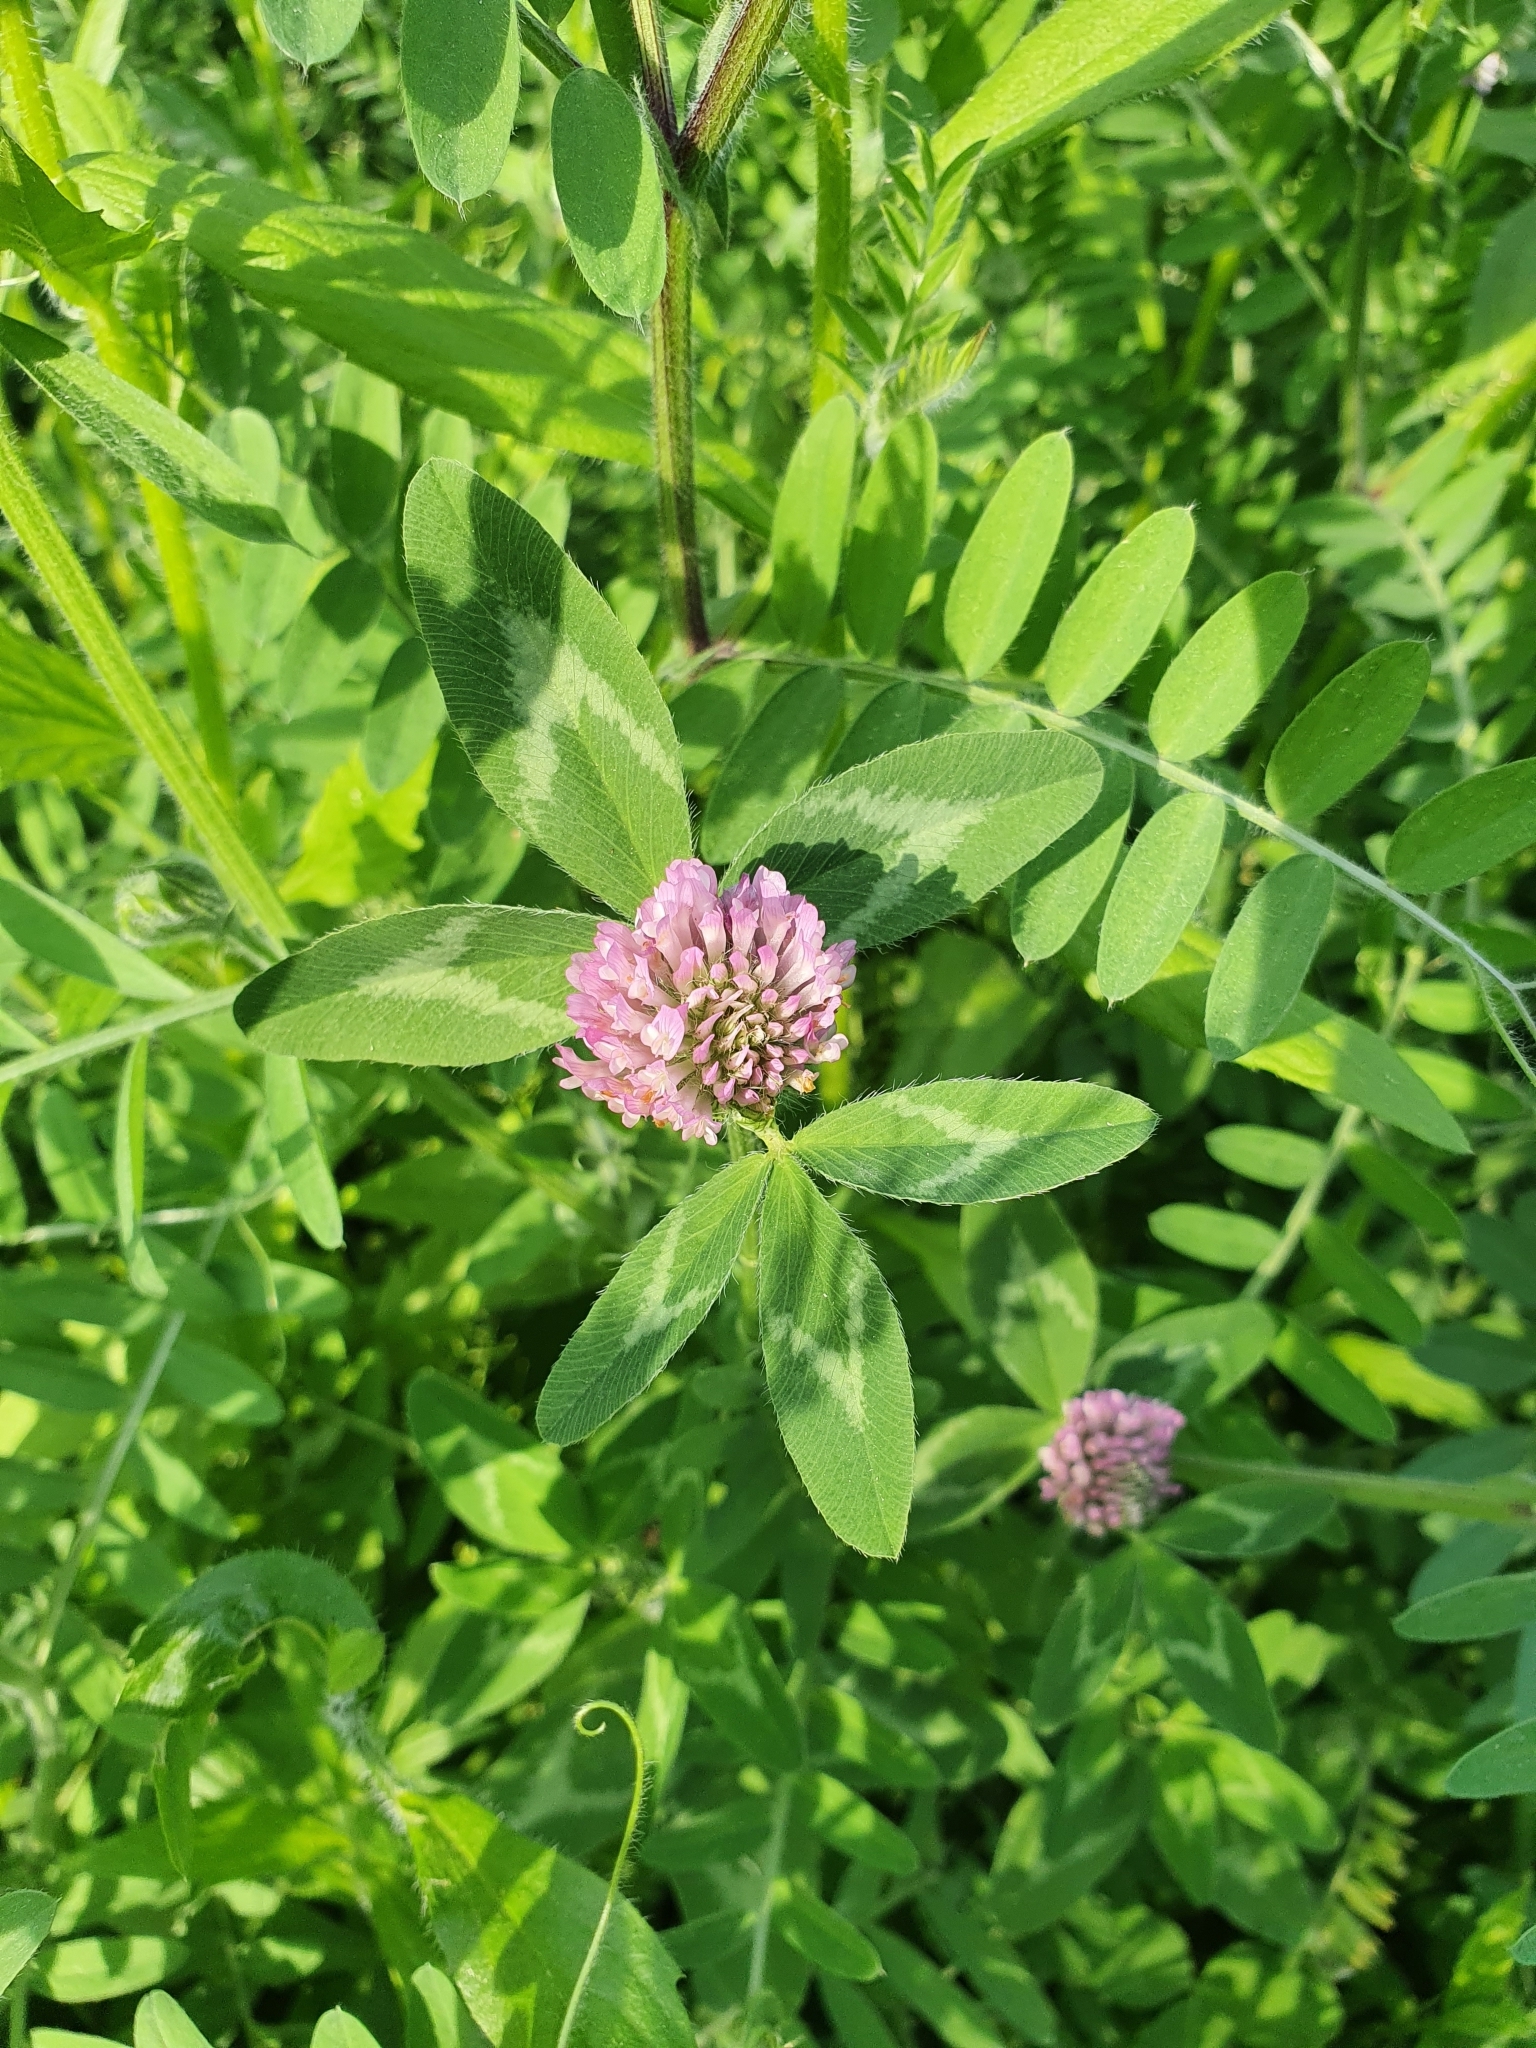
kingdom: Plantae
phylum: Tracheophyta
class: Magnoliopsida
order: Fabales
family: Fabaceae
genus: Trifolium
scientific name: Trifolium pratense
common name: Red clover
